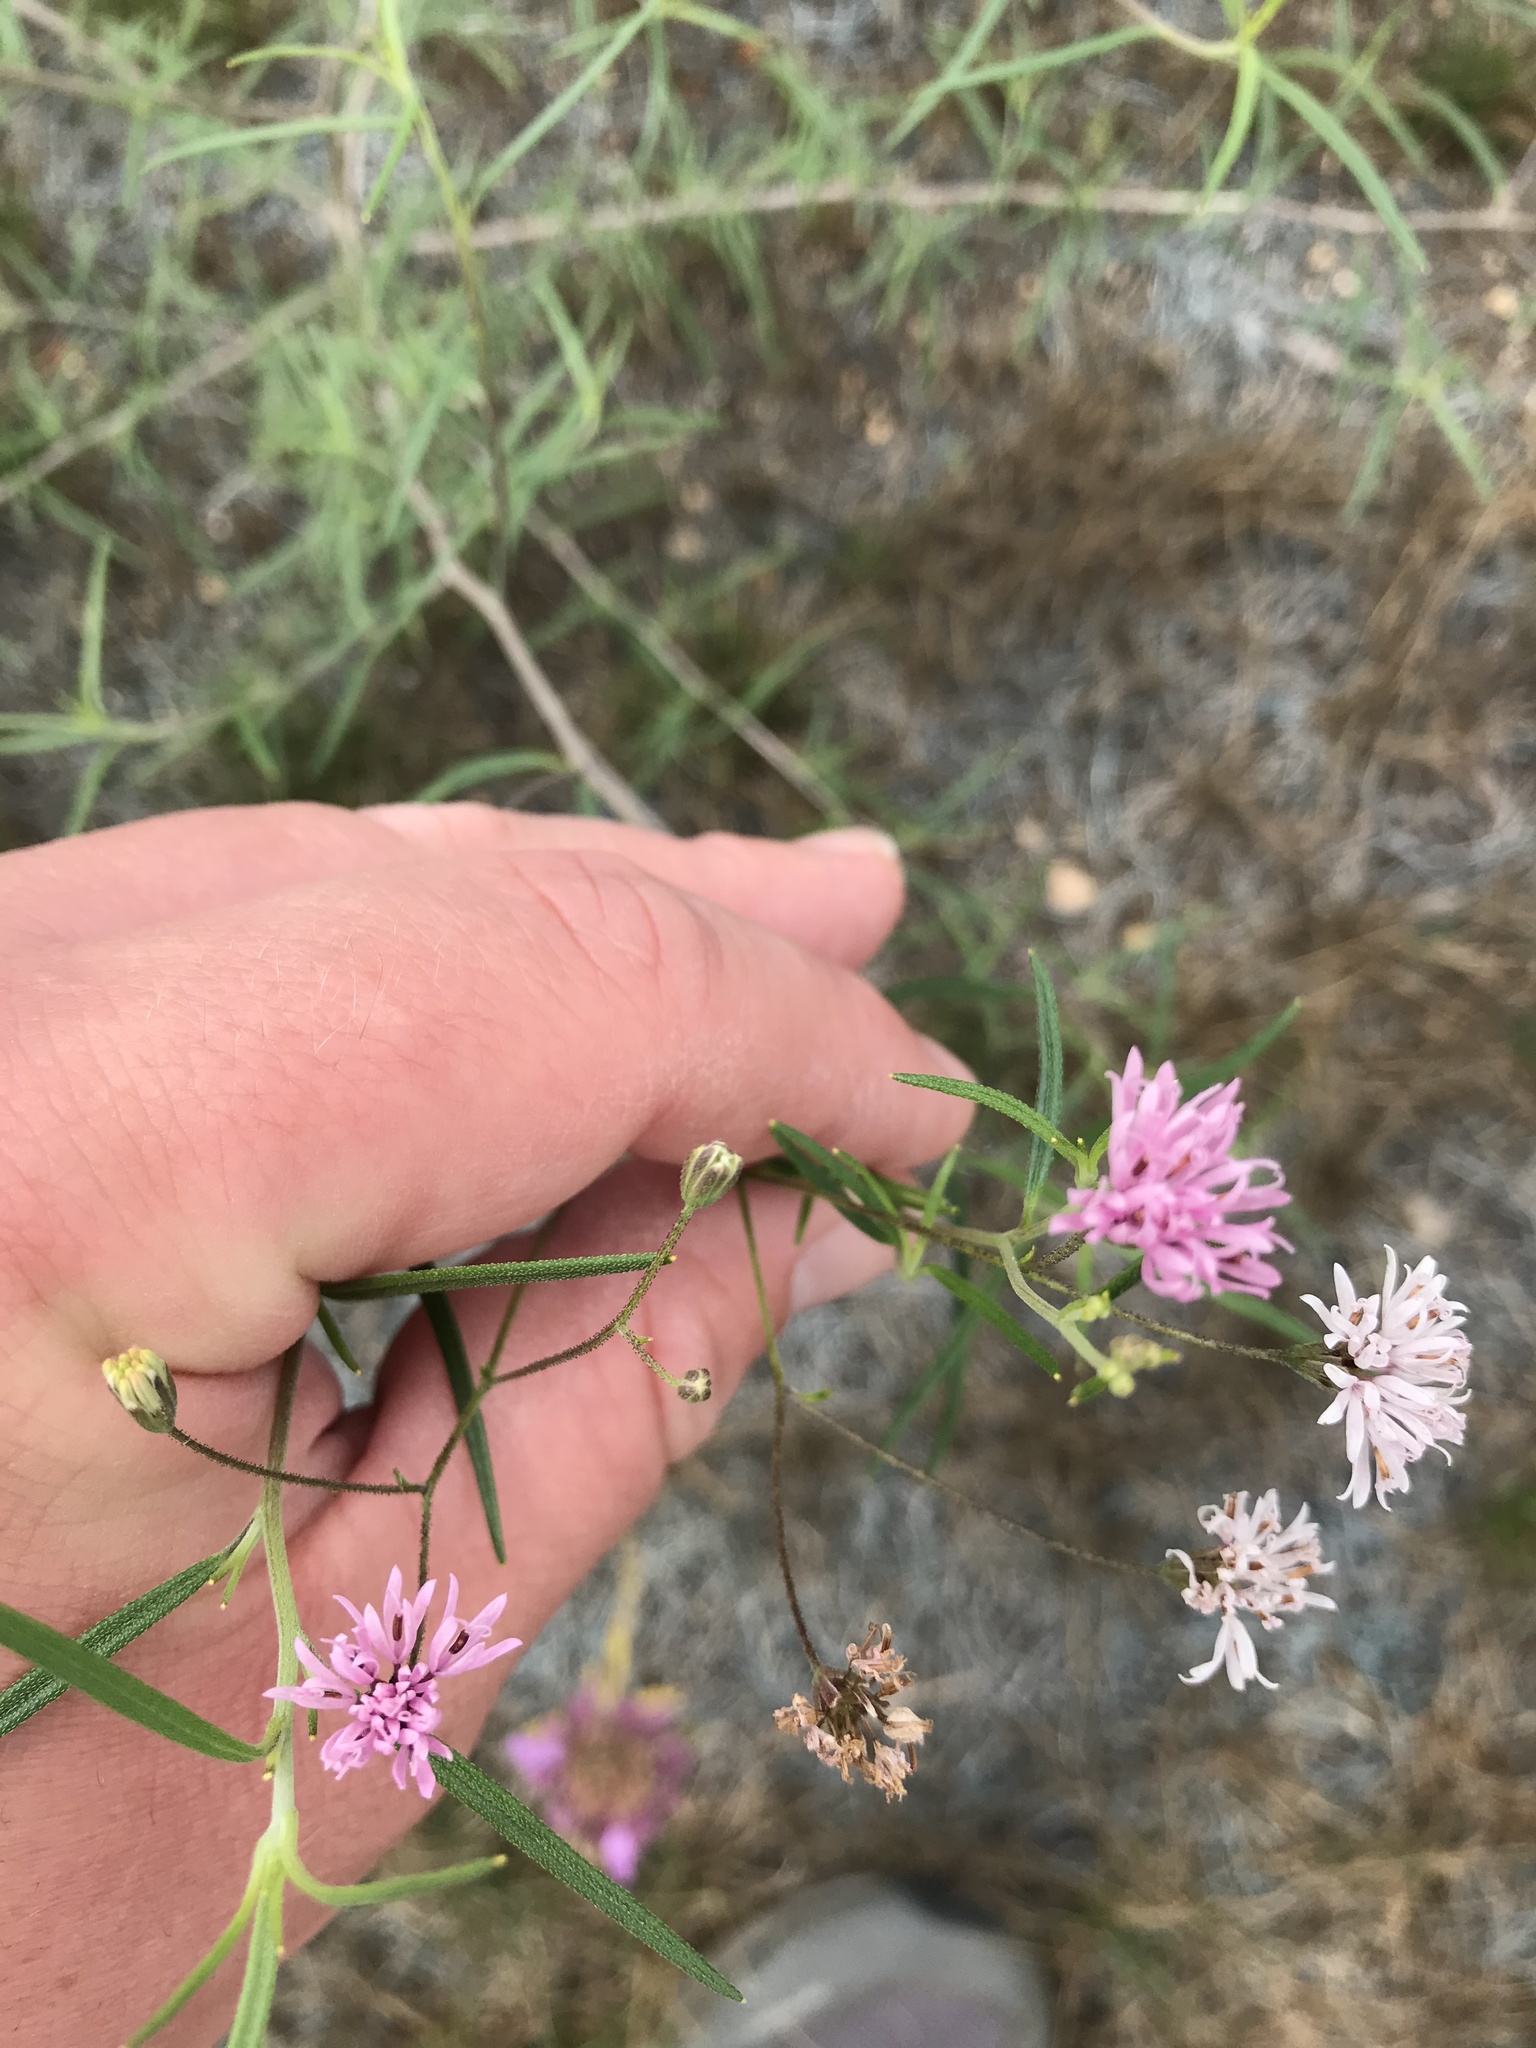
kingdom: Plantae
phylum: Tracheophyta
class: Magnoliopsida
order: Asterales
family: Asteraceae
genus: Palafoxia
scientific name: Palafoxia callosa
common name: Small palafox
